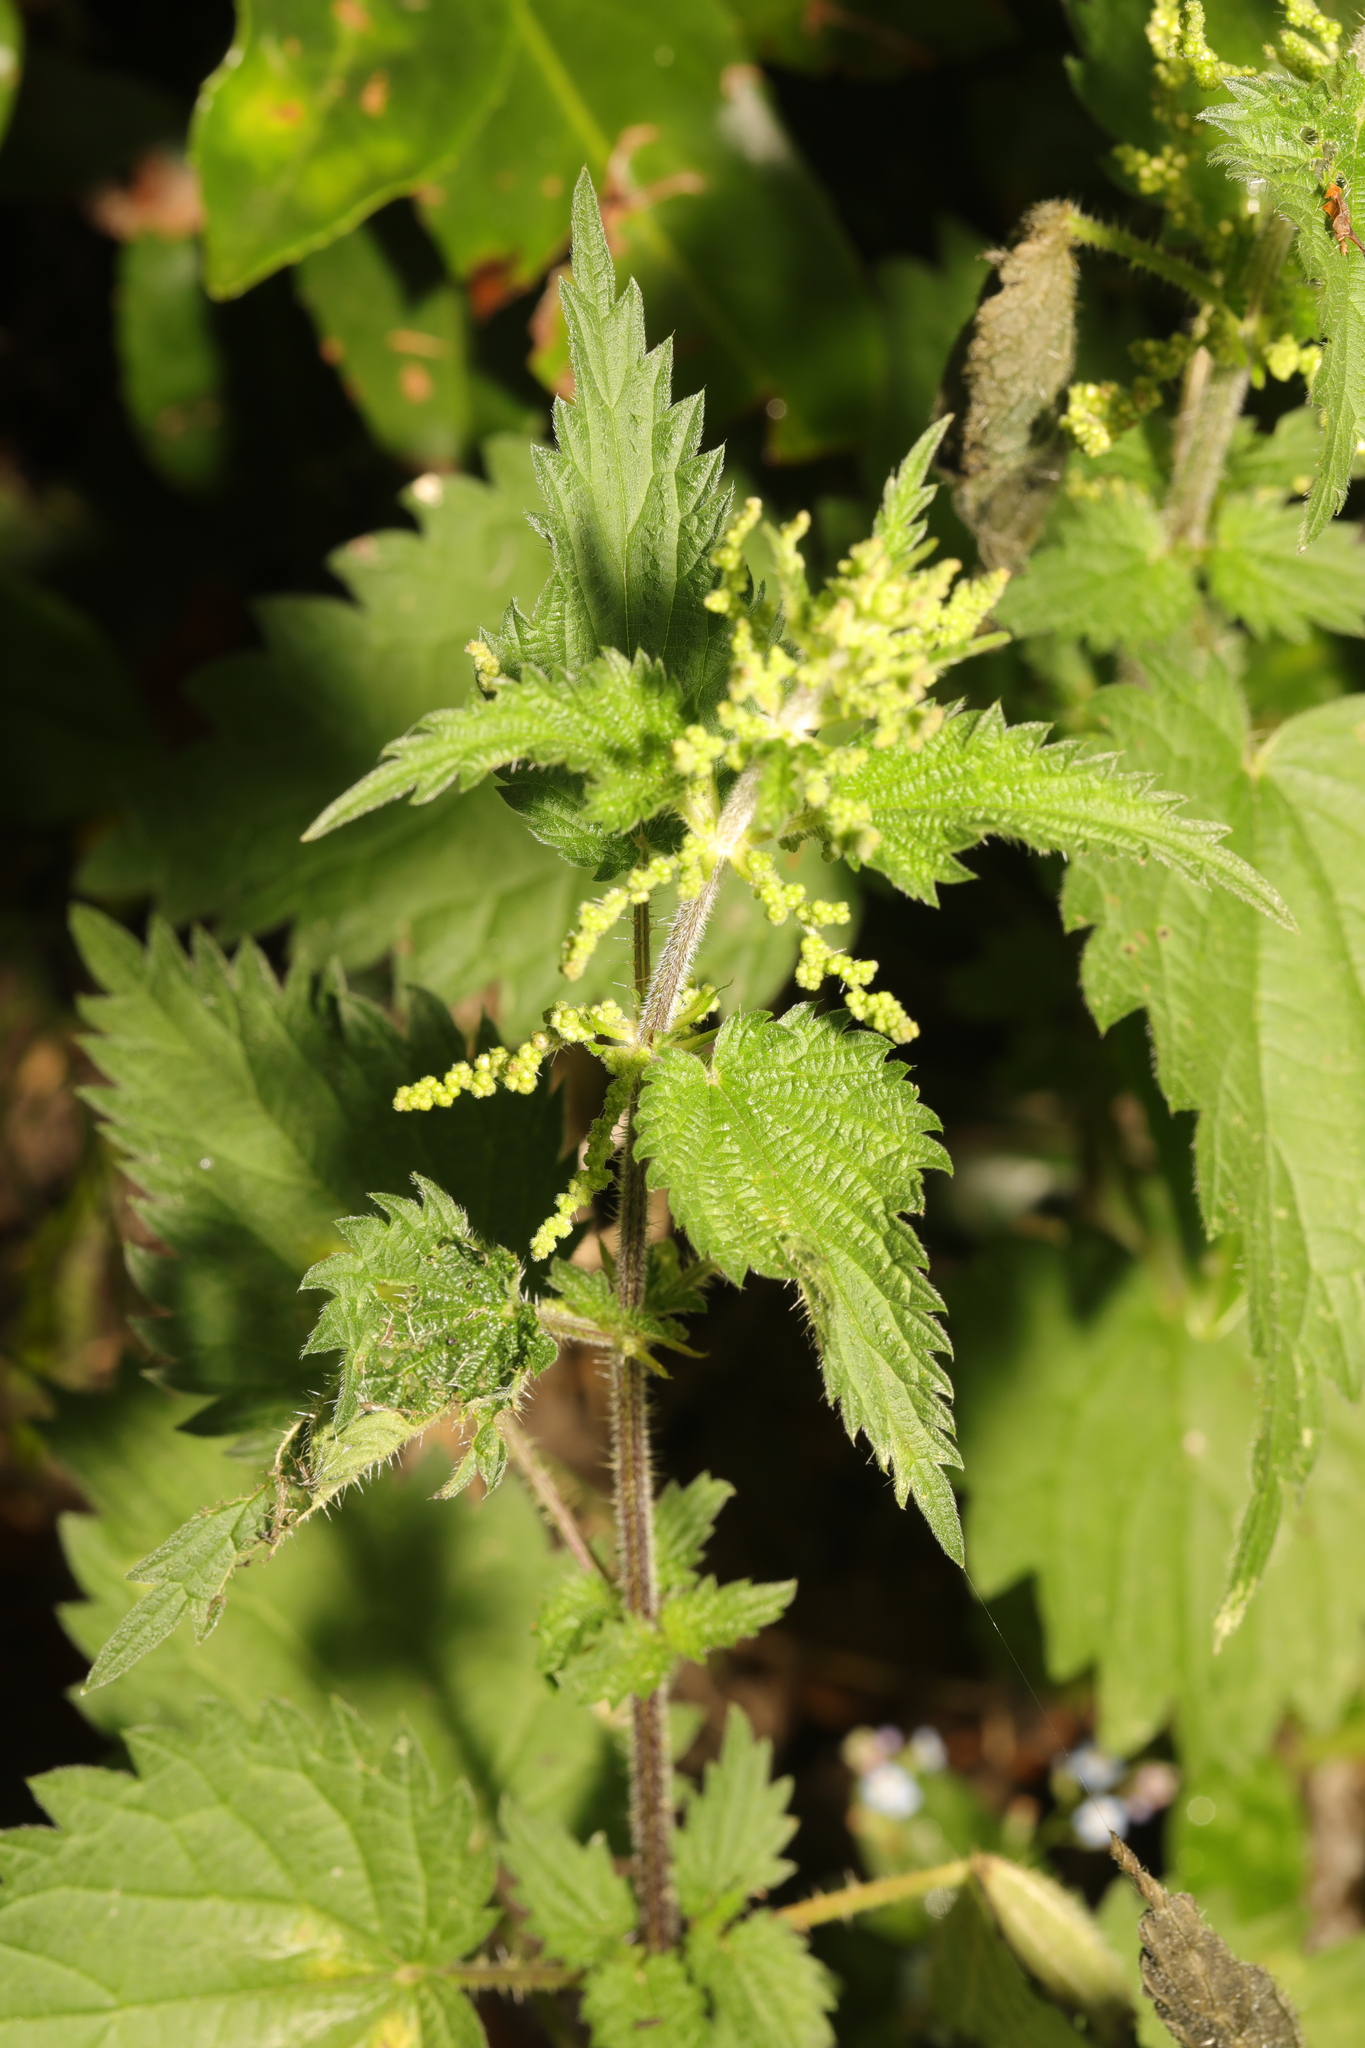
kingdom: Plantae
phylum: Tracheophyta
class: Magnoliopsida
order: Rosales
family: Urticaceae
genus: Urtica
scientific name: Urtica dioica
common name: Common nettle
